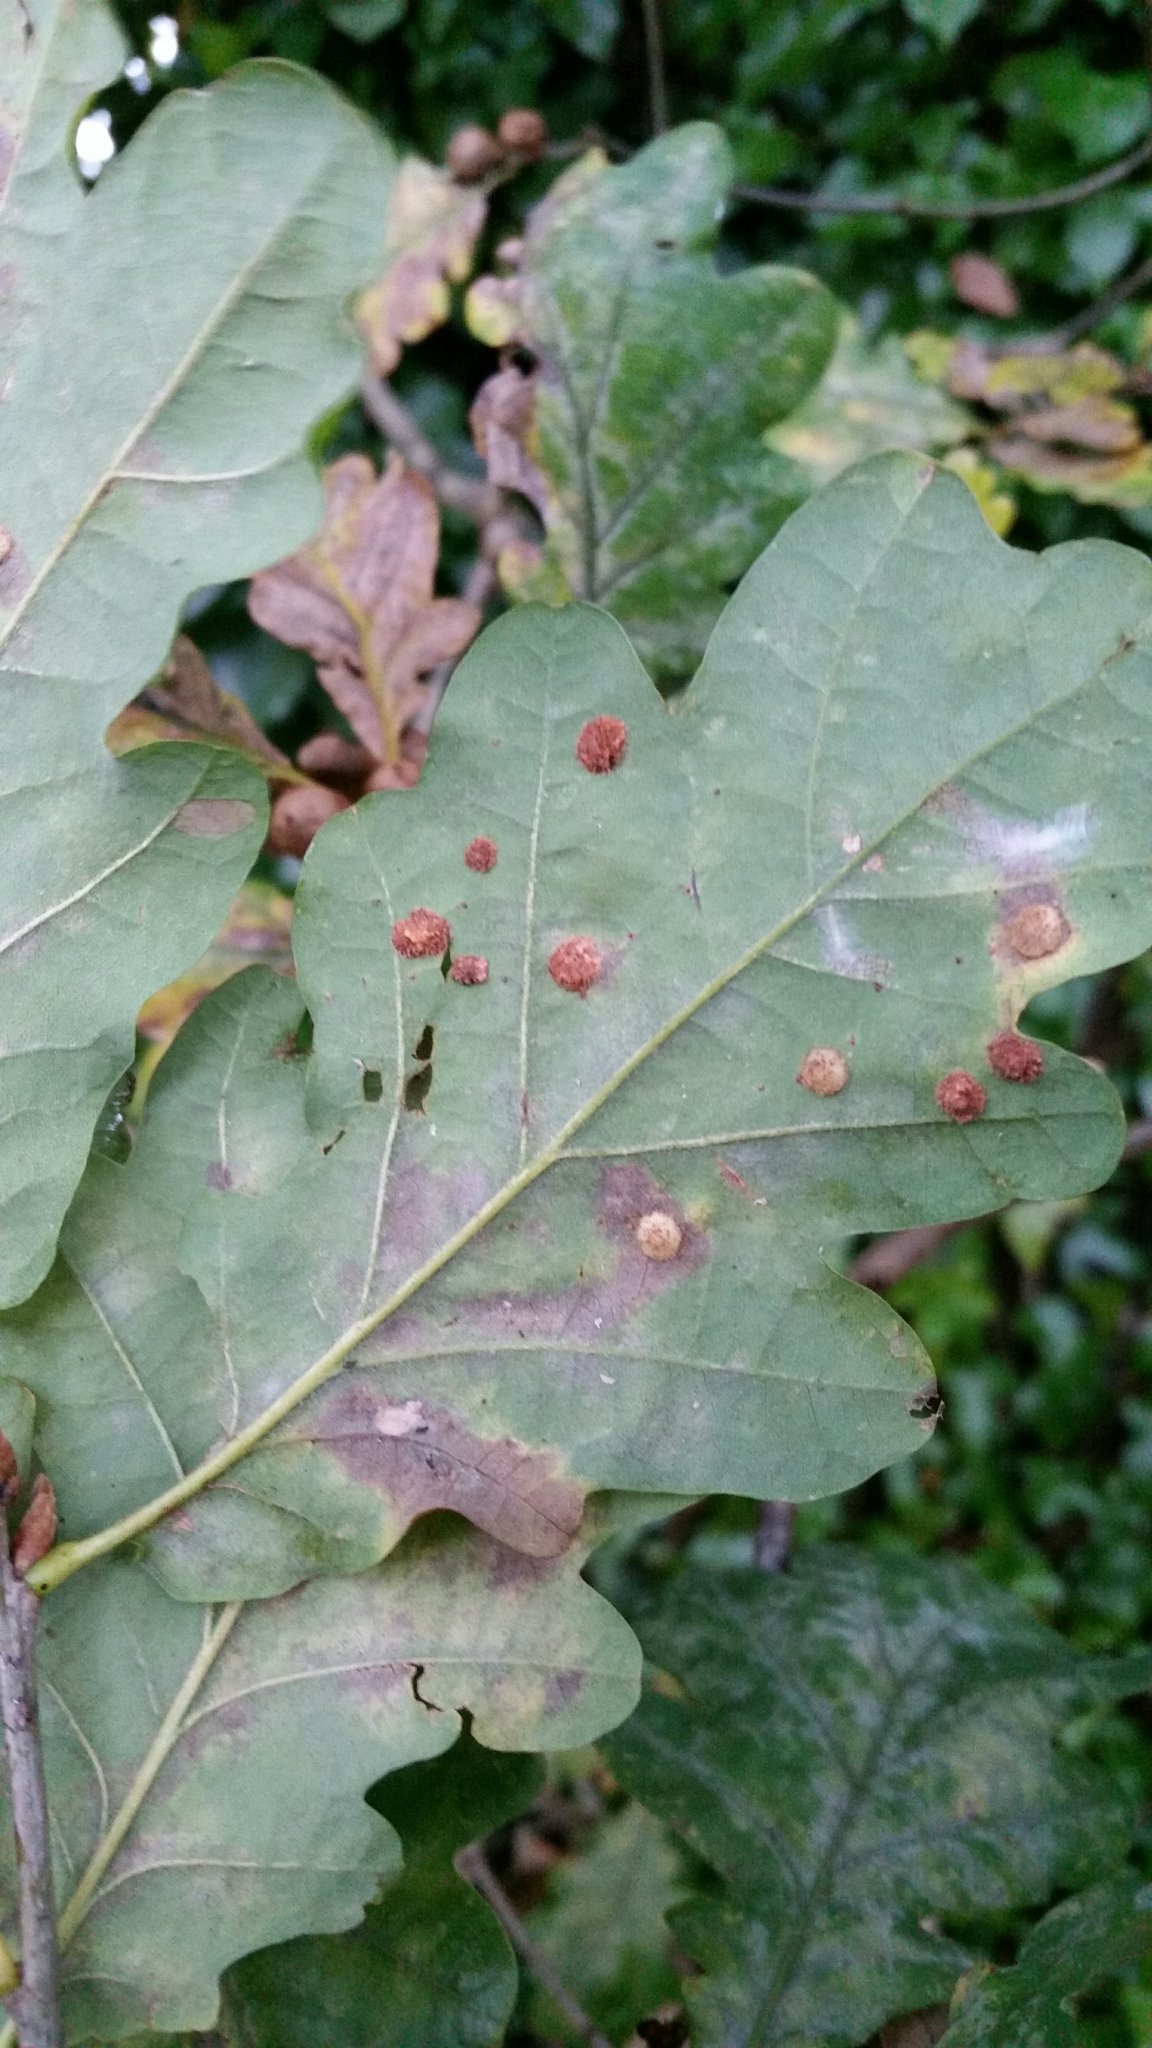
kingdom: Animalia
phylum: Arthropoda
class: Insecta
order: Hymenoptera
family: Cynipidae
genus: Neuroterus
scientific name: Neuroterus quercusbaccarum
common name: Common spangle gall
